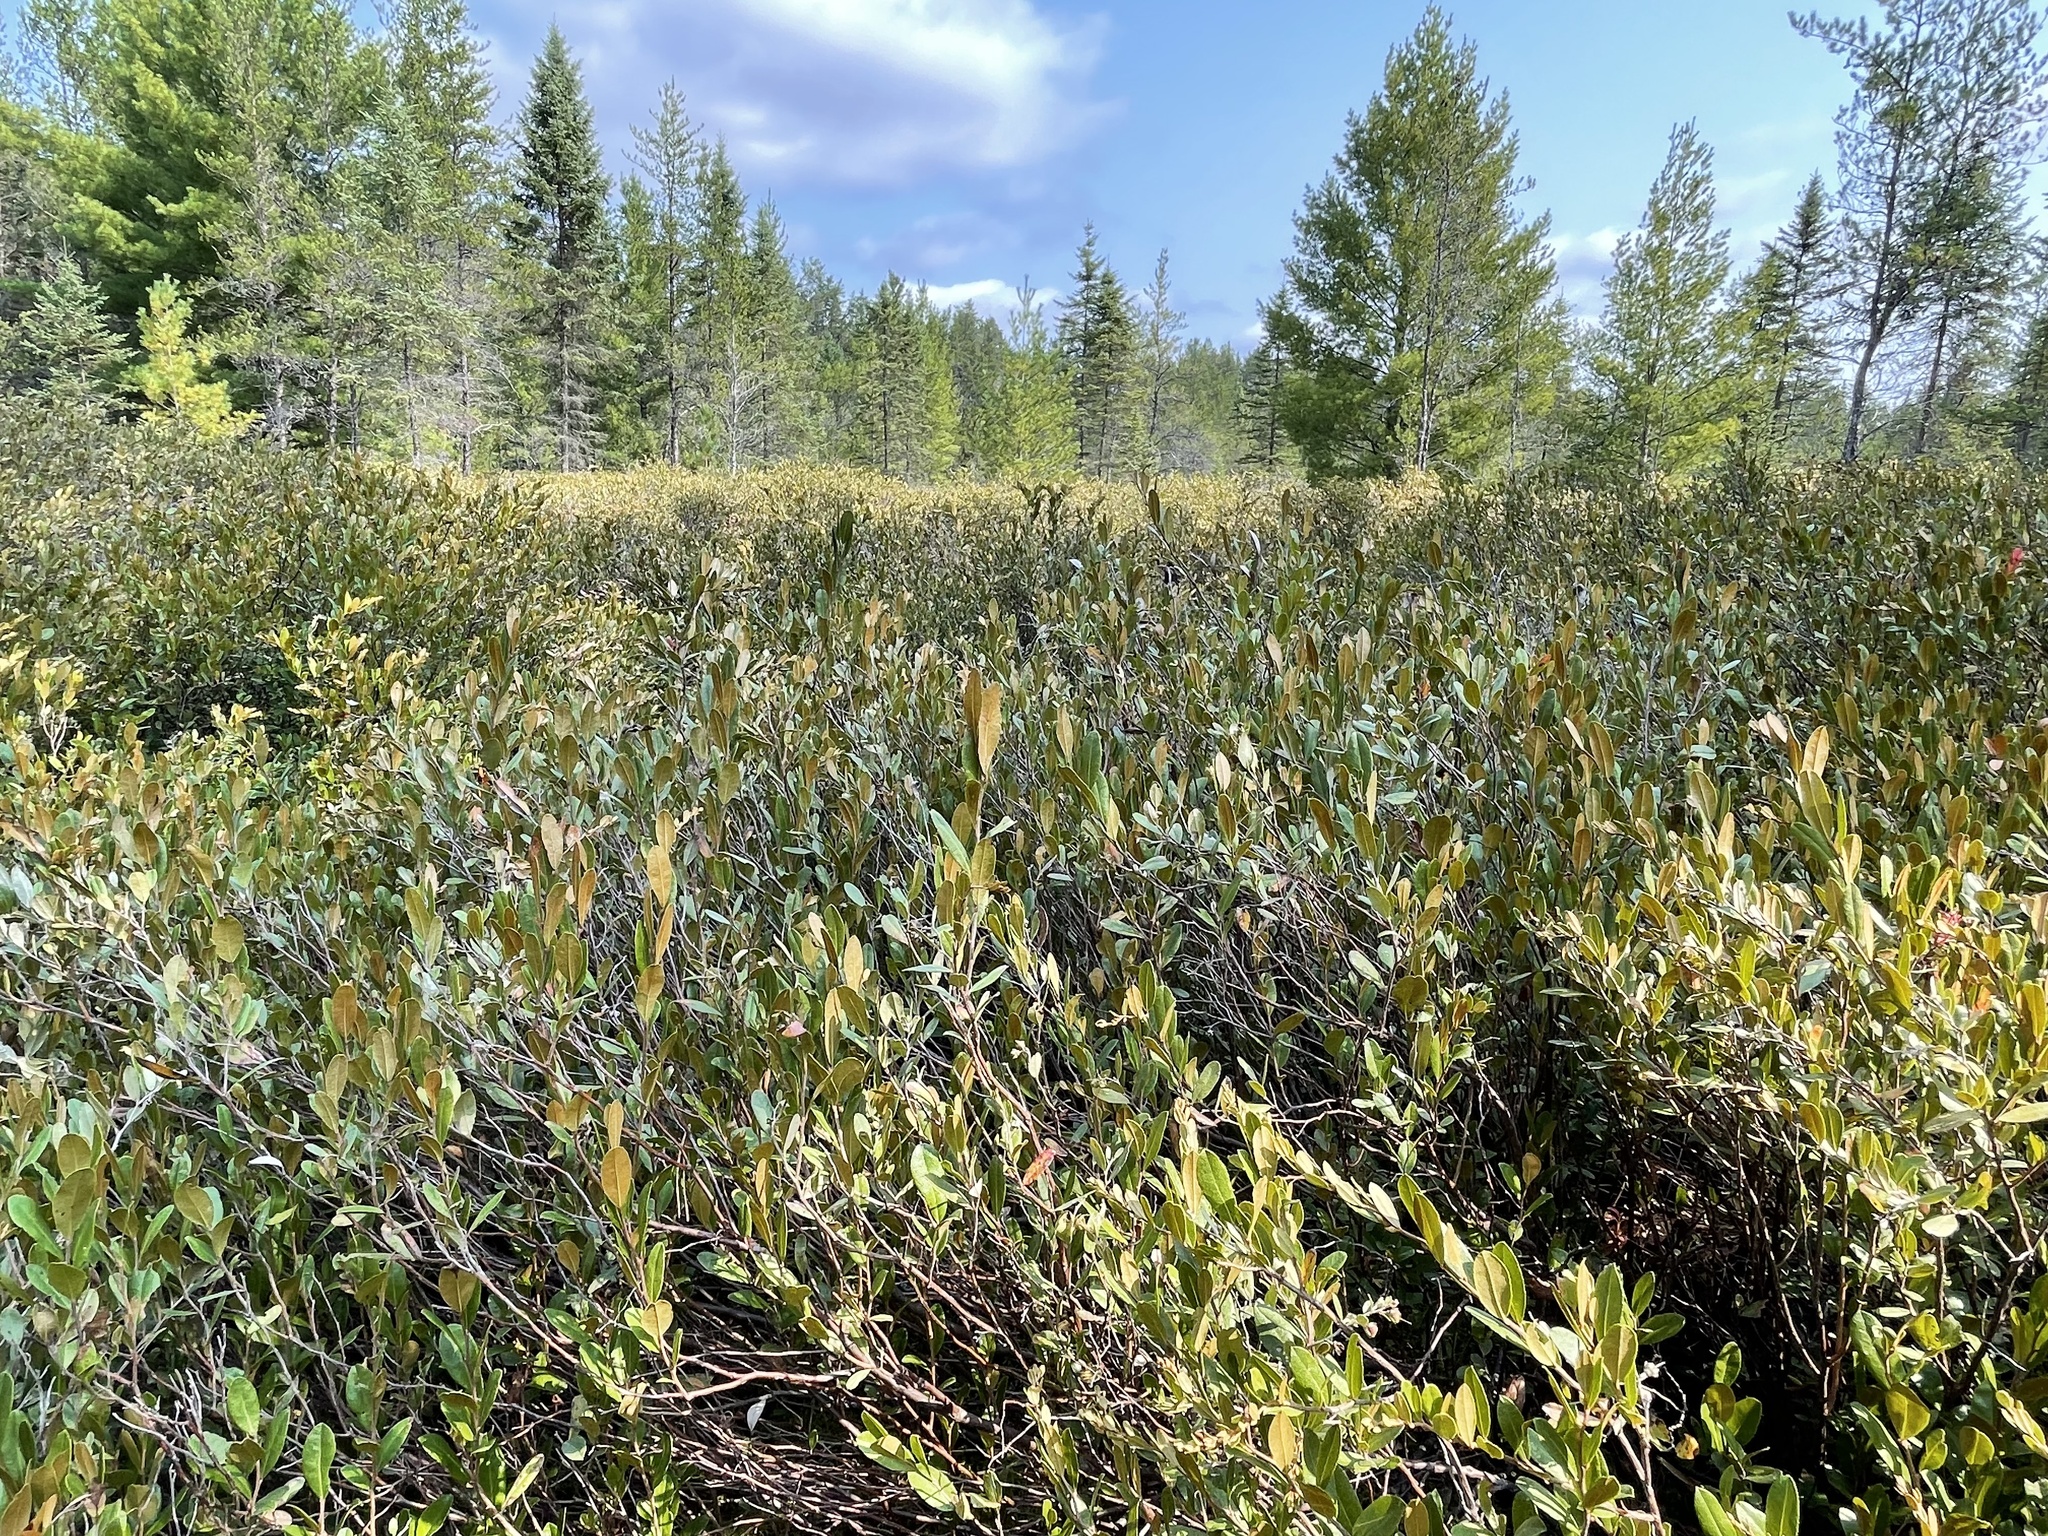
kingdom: Plantae
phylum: Tracheophyta
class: Magnoliopsida
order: Ericales
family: Ericaceae
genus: Chamaedaphne
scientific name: Chamaedaphne calyculata
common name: Leatherleaf
